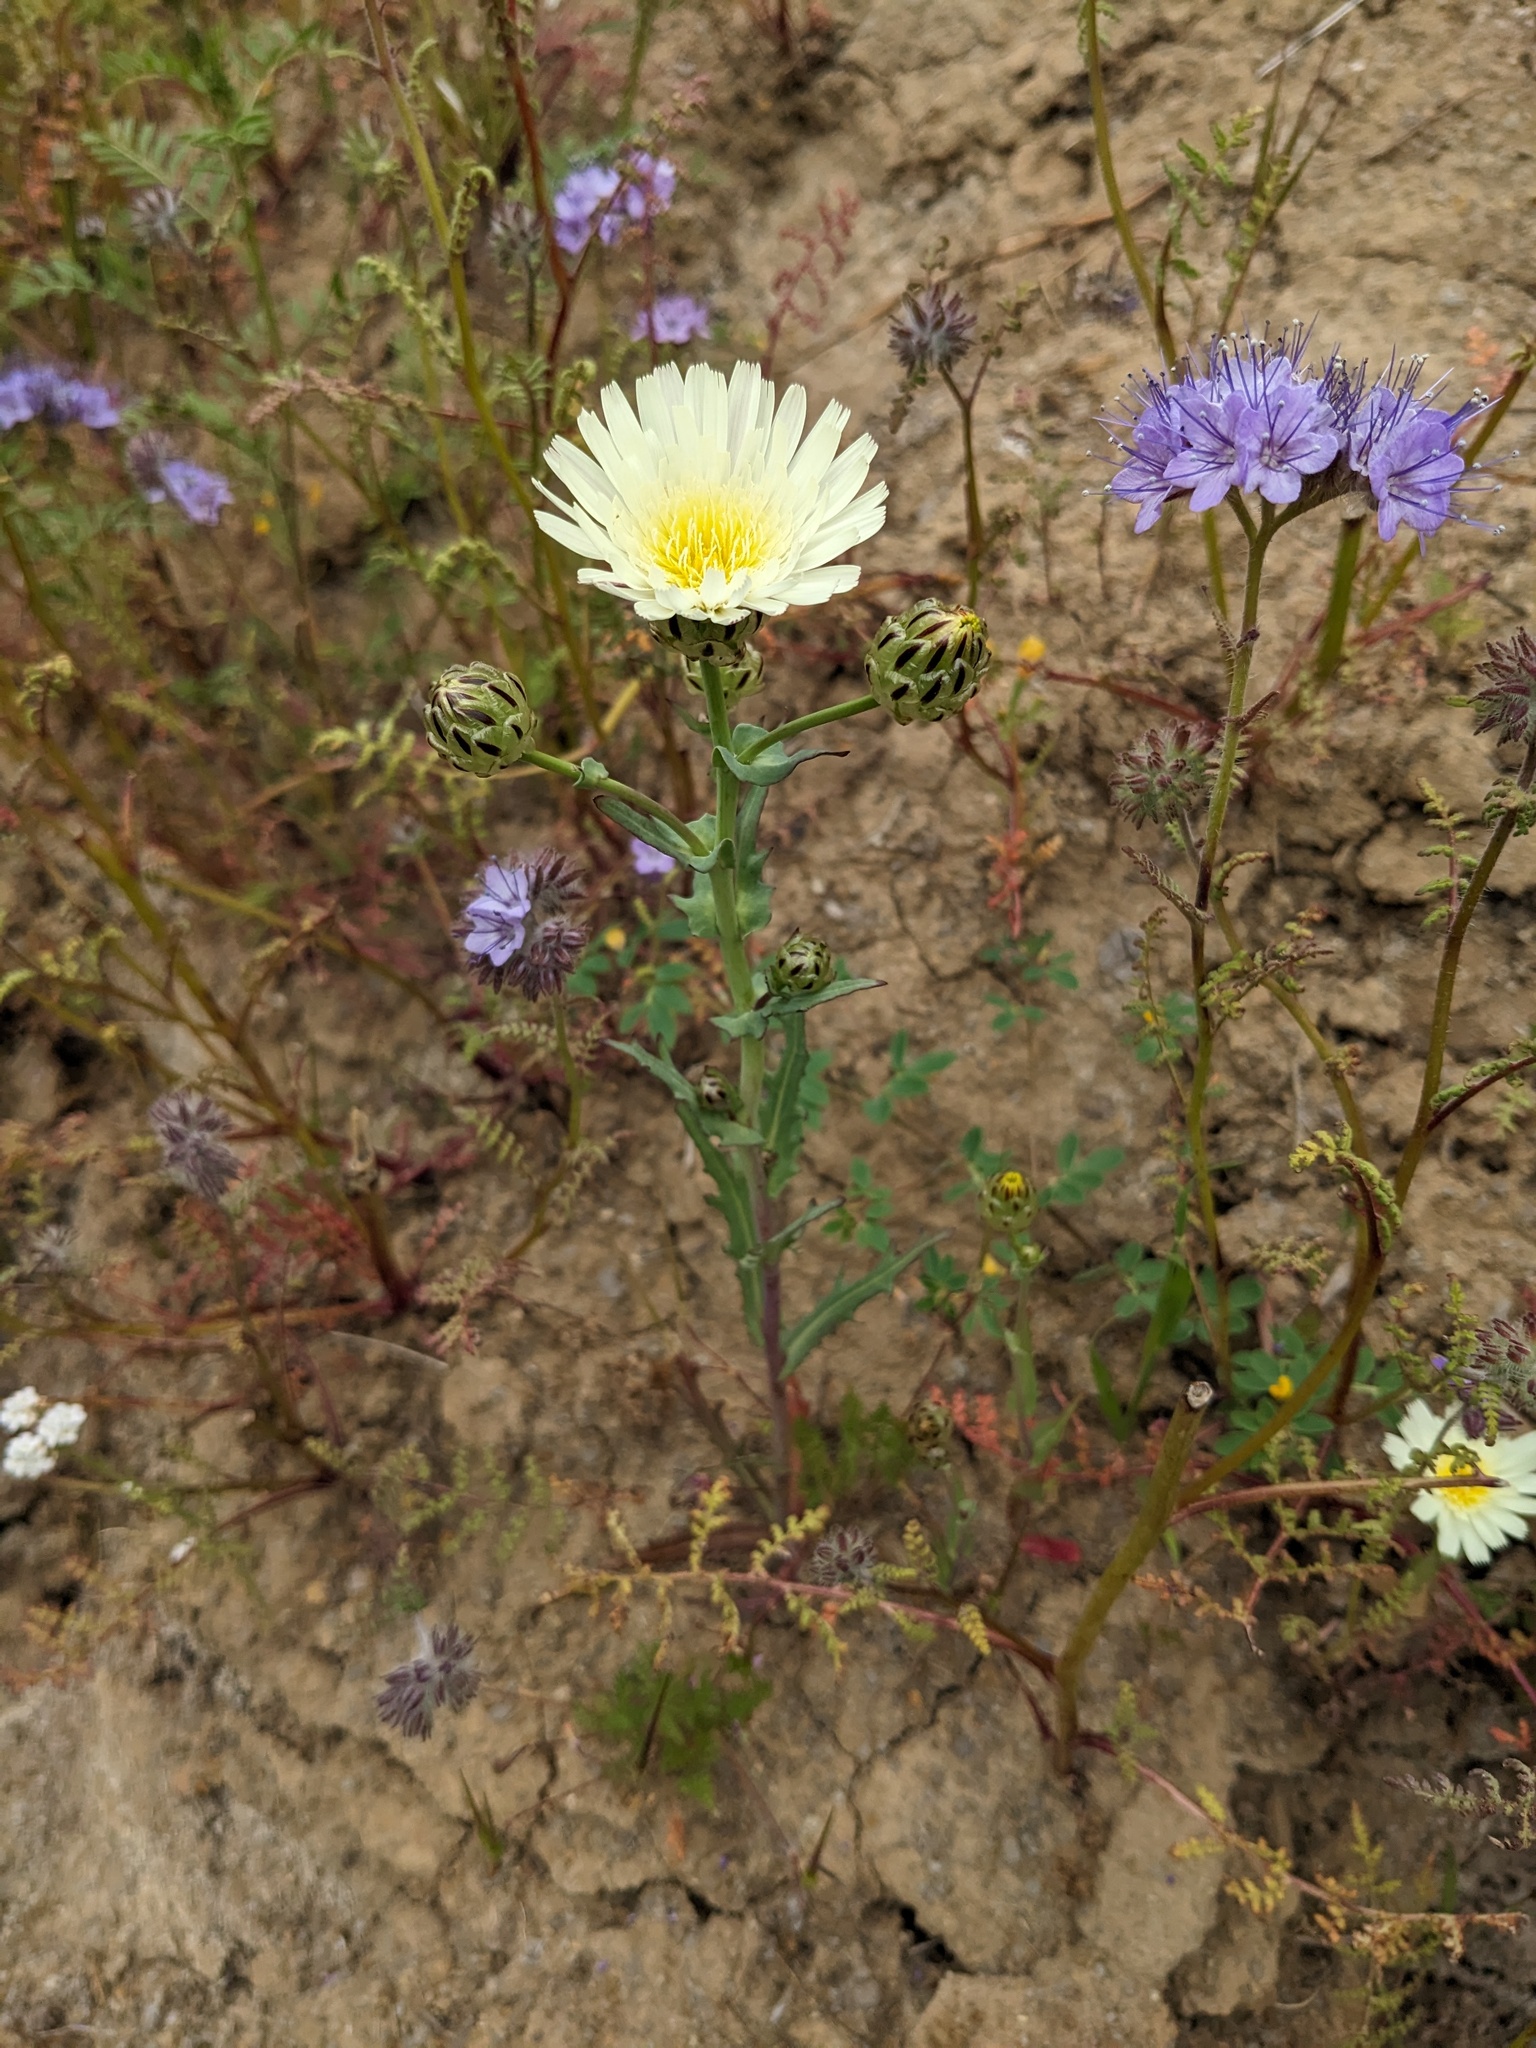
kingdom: Plantae
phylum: Tracheophyta
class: Magnoliopsida
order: Asterales
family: Asteraceae
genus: Malacothrix
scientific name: Malacothrix coulteri
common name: Snake's-head
